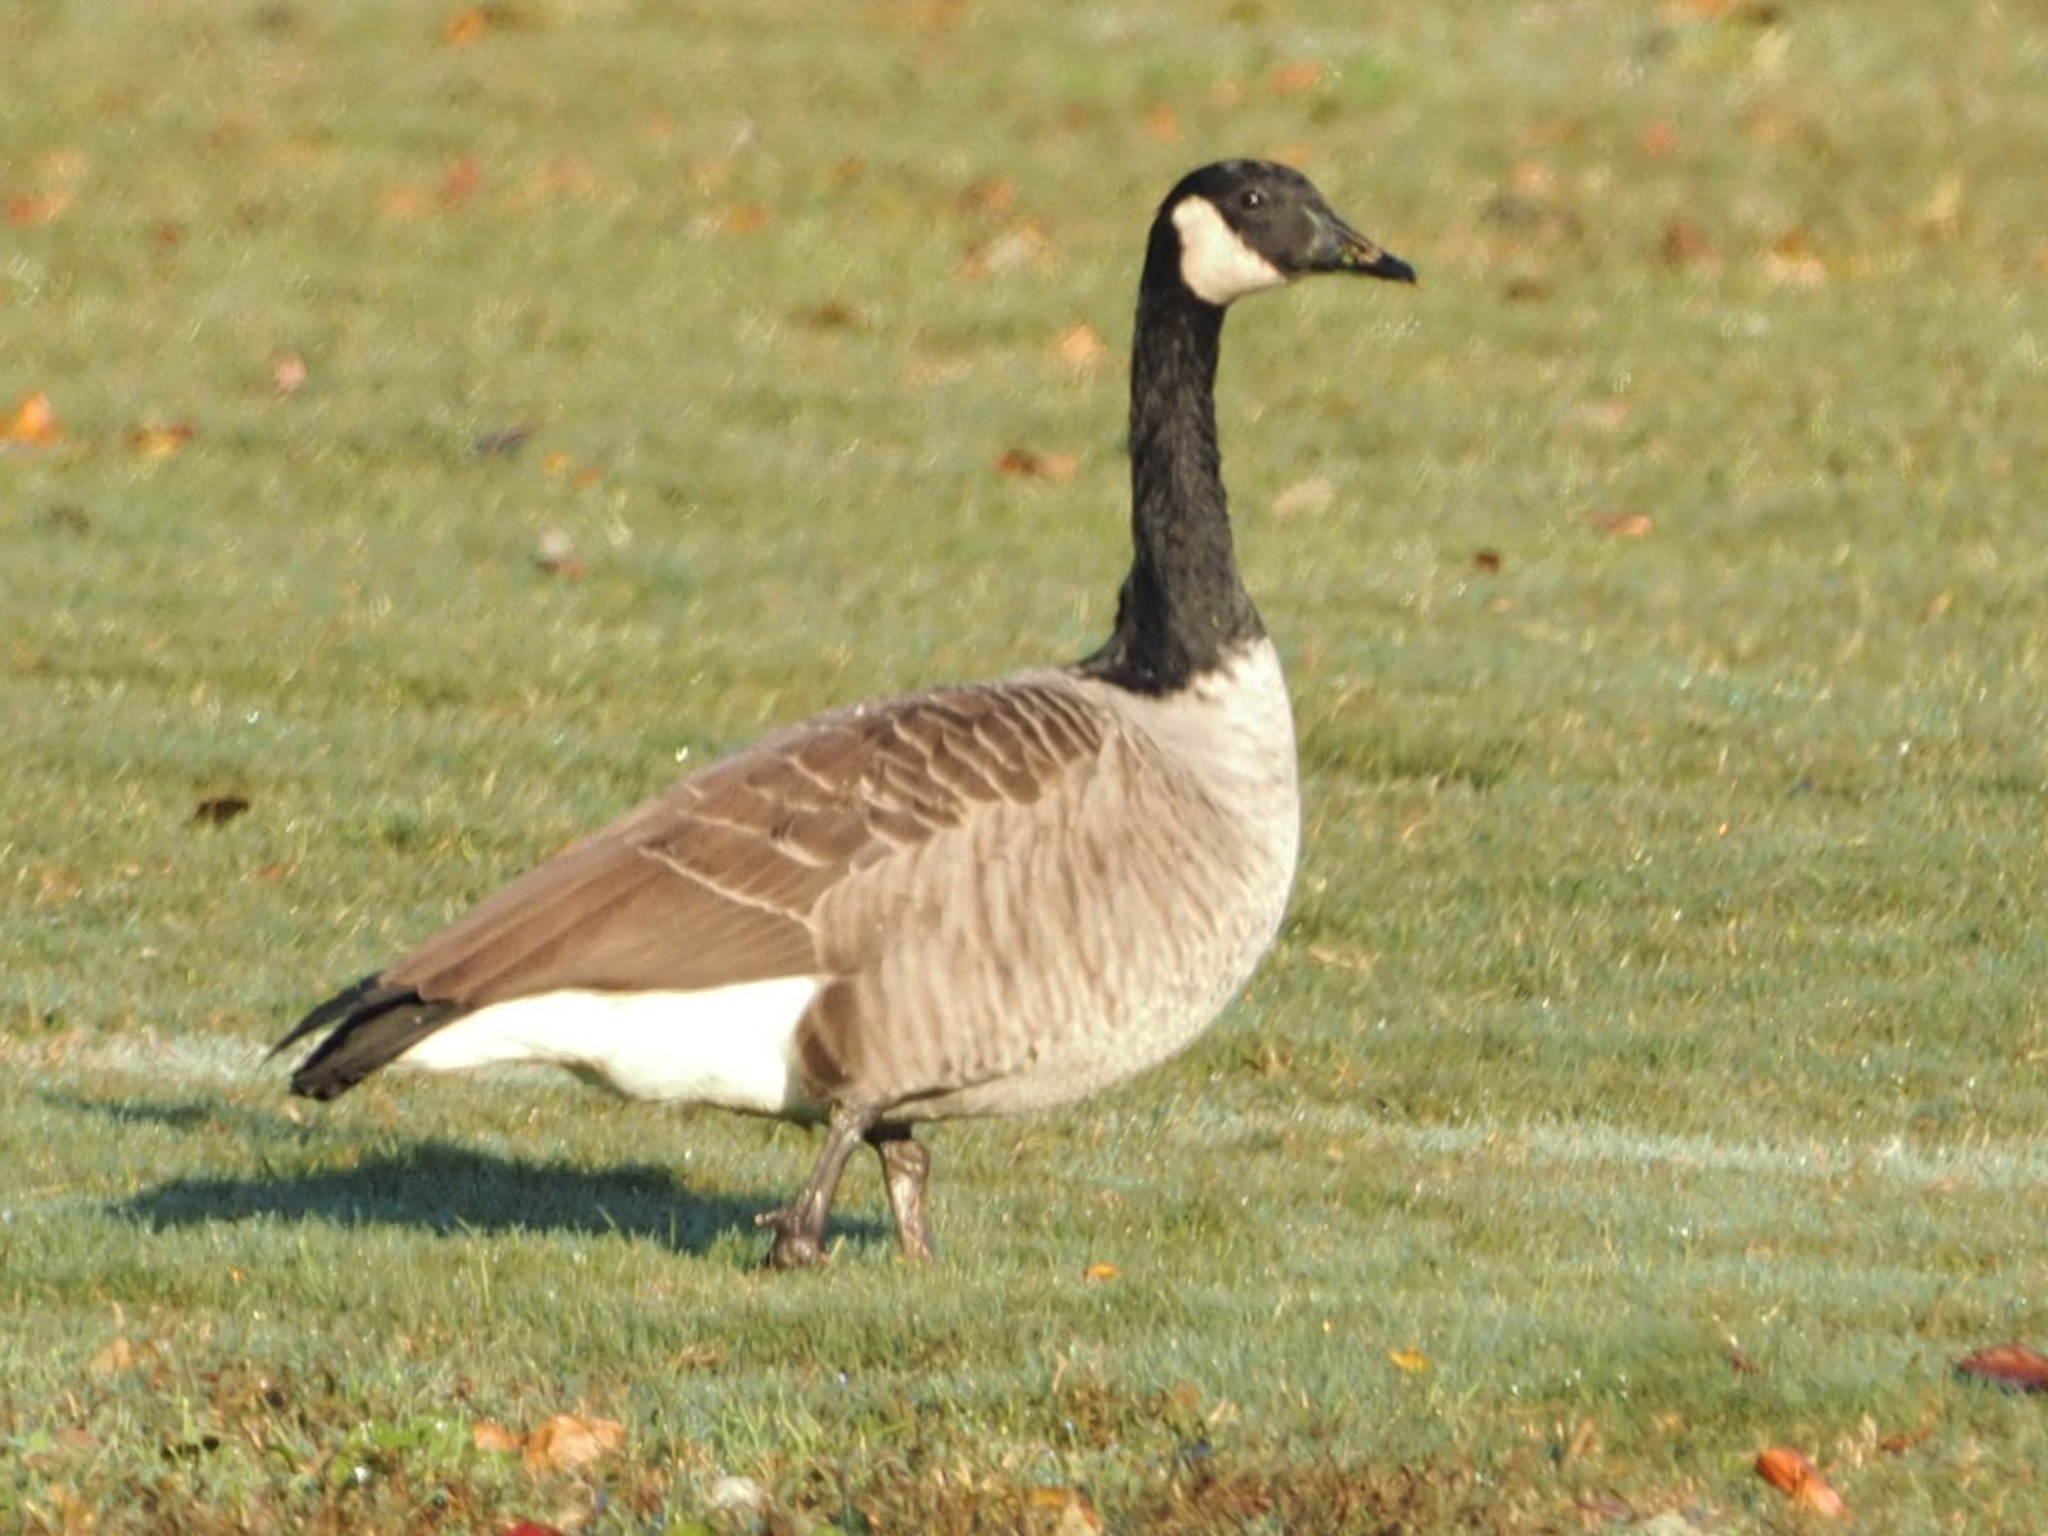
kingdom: Animalia
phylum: Chordata
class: Aves
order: Anseriformes
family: Anatidae
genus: Branta
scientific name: Branta canadensis
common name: Canada goose
